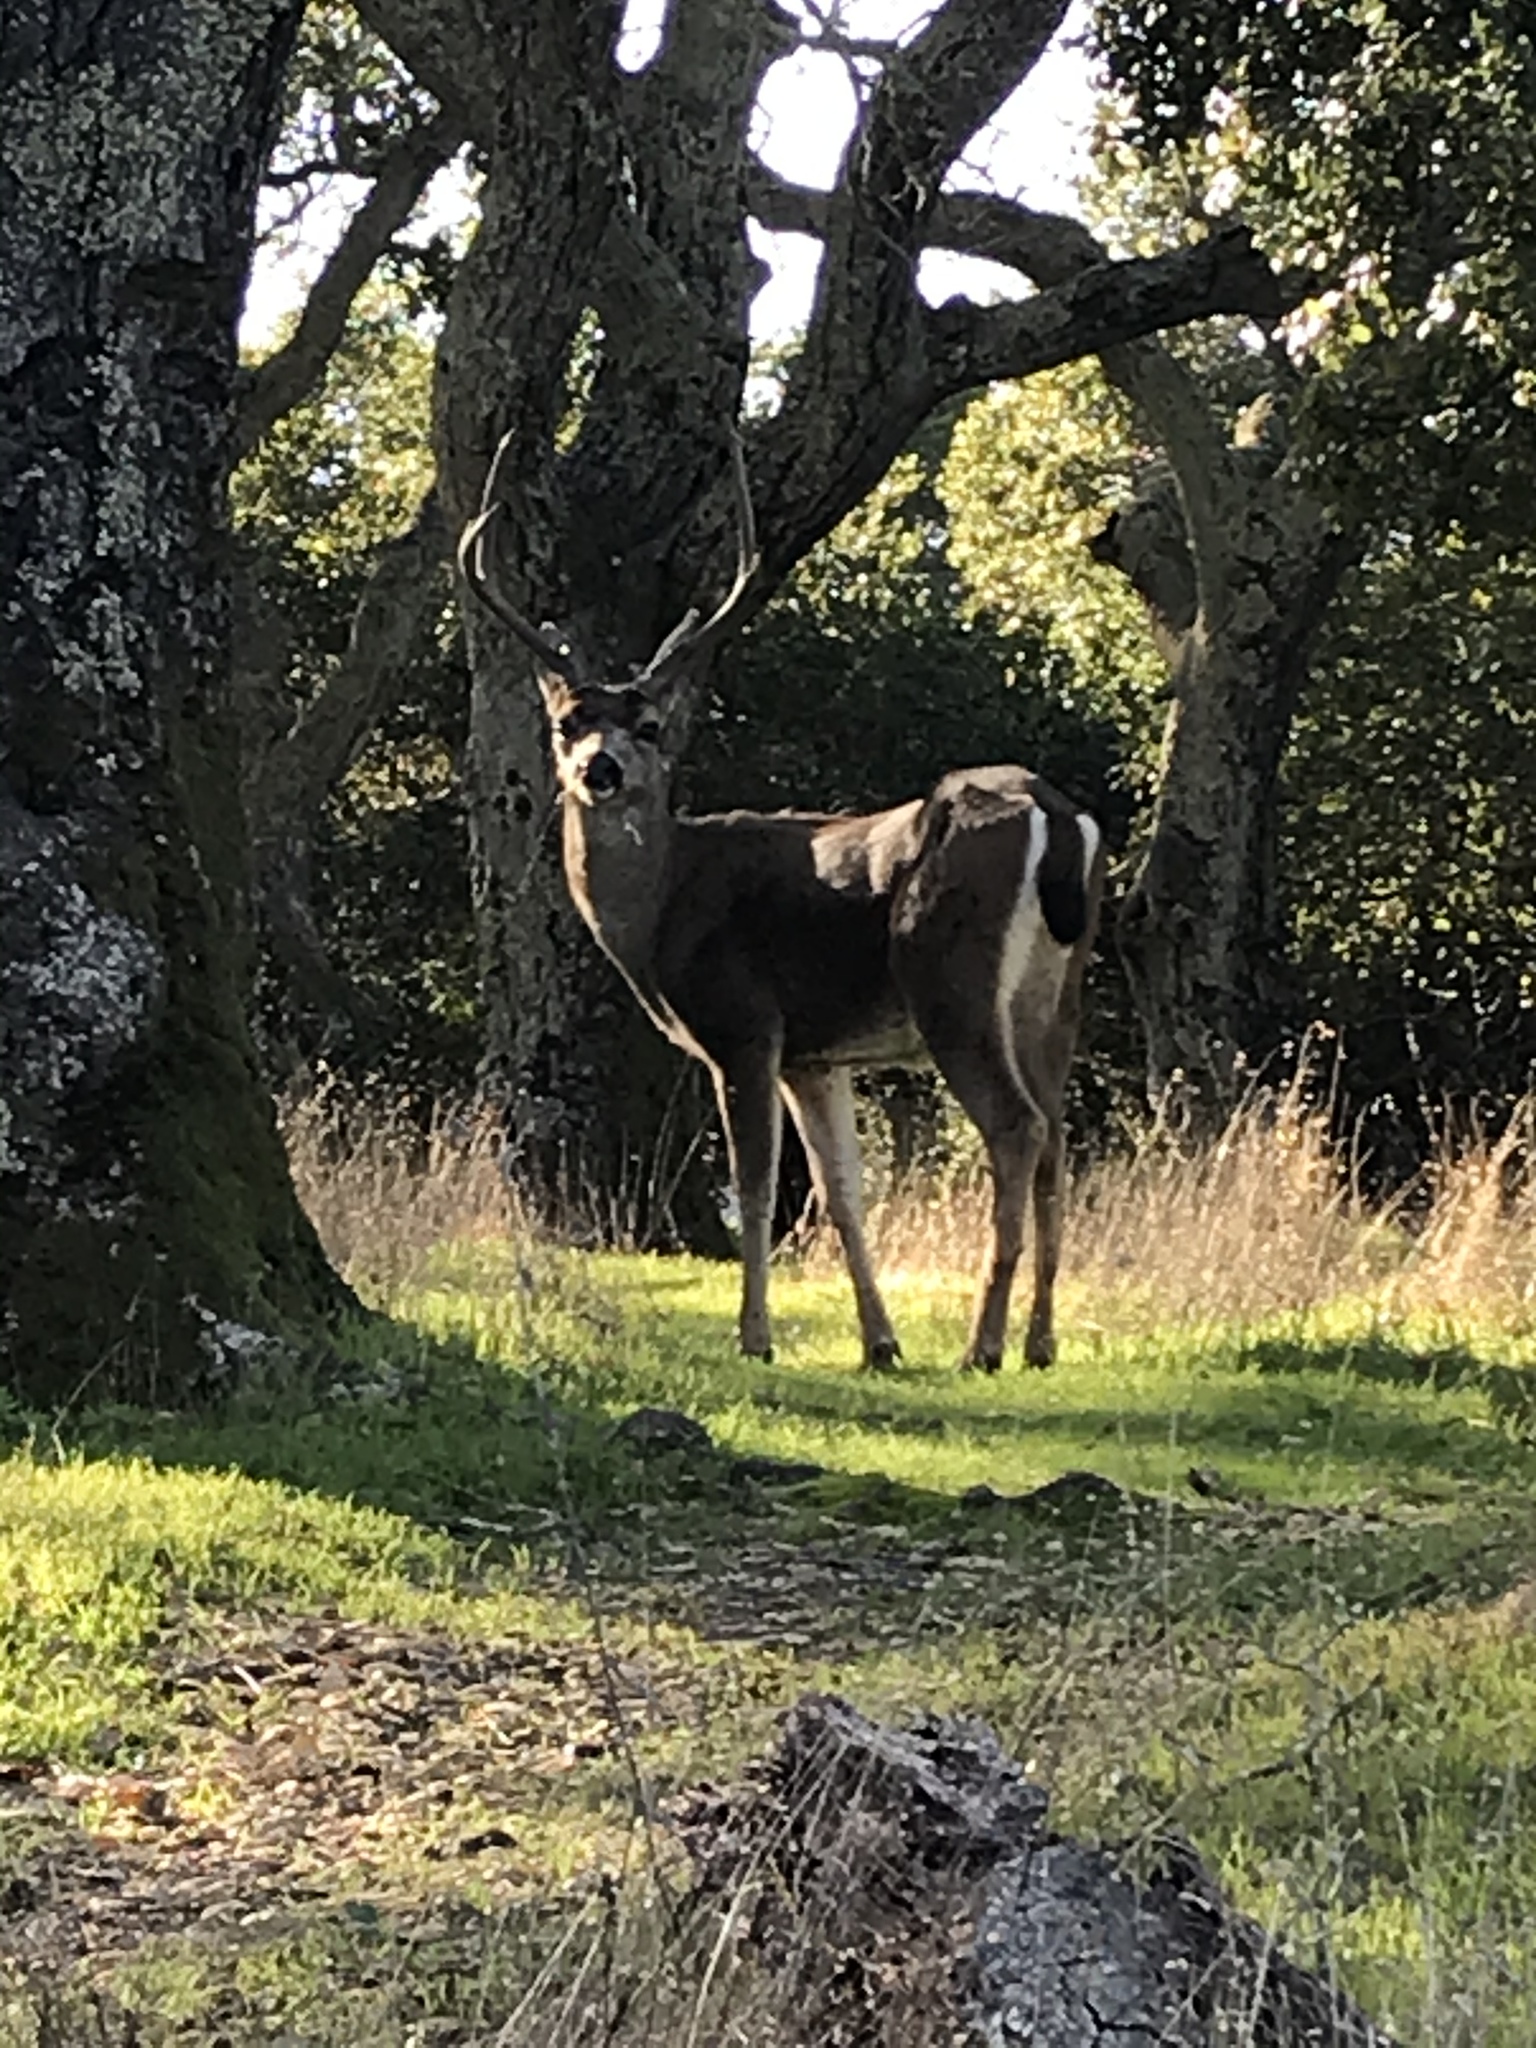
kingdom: Animalia
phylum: Chordata
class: Mammalia
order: Artiodactyla
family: Cervidae
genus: Odocoileus
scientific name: Odocoileus hemionus
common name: Mule deer
